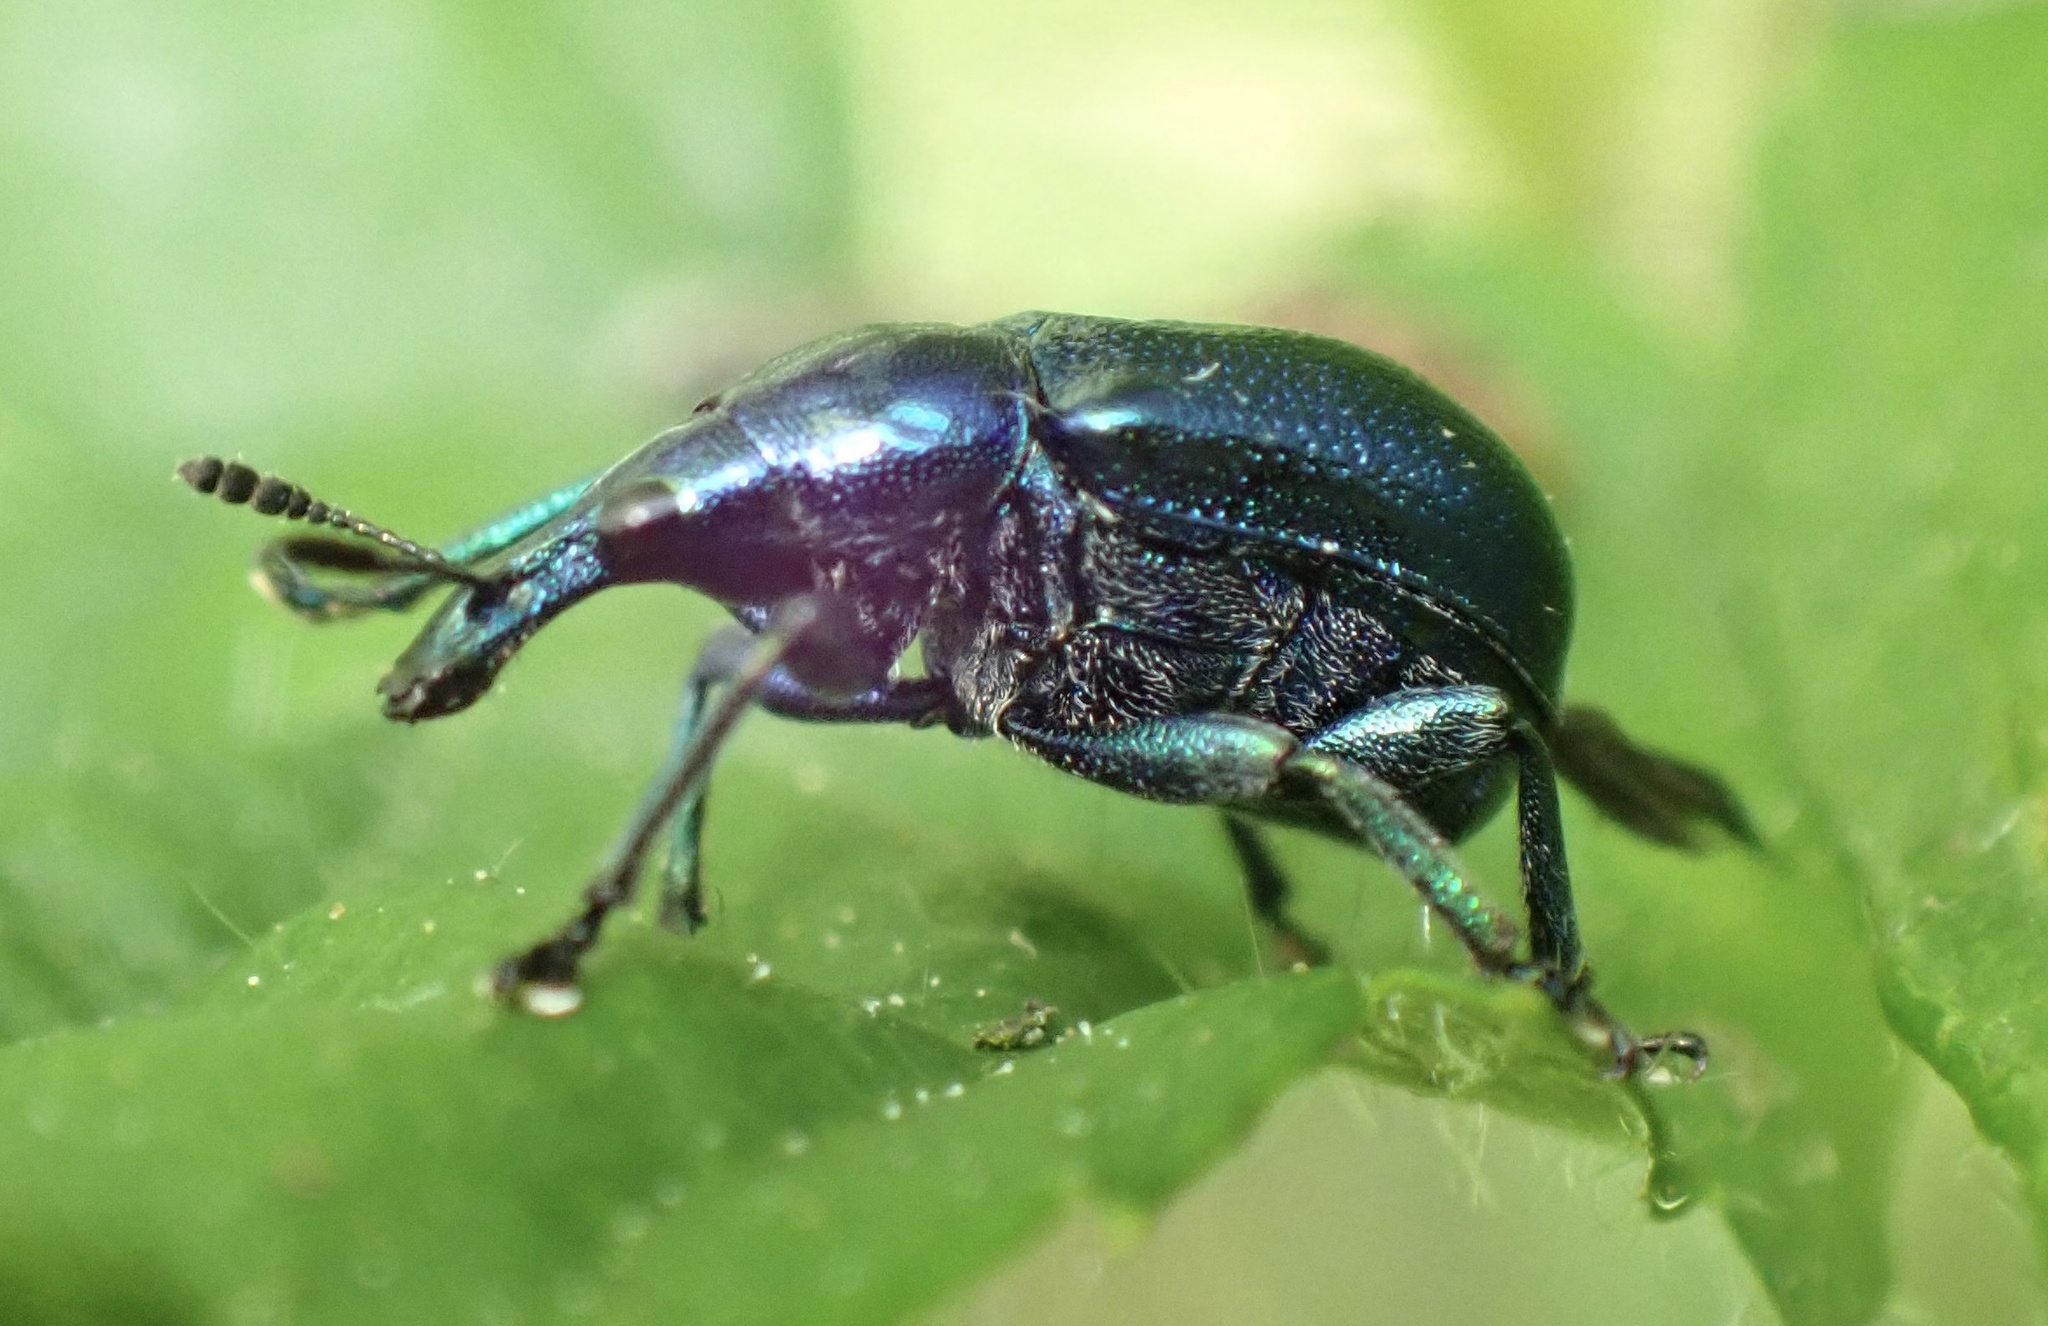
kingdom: Animalia
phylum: Arthropoda
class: Insecta
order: Coleoptera
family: Attelabidae
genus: Byctiscus
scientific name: Byctiscus betulae
